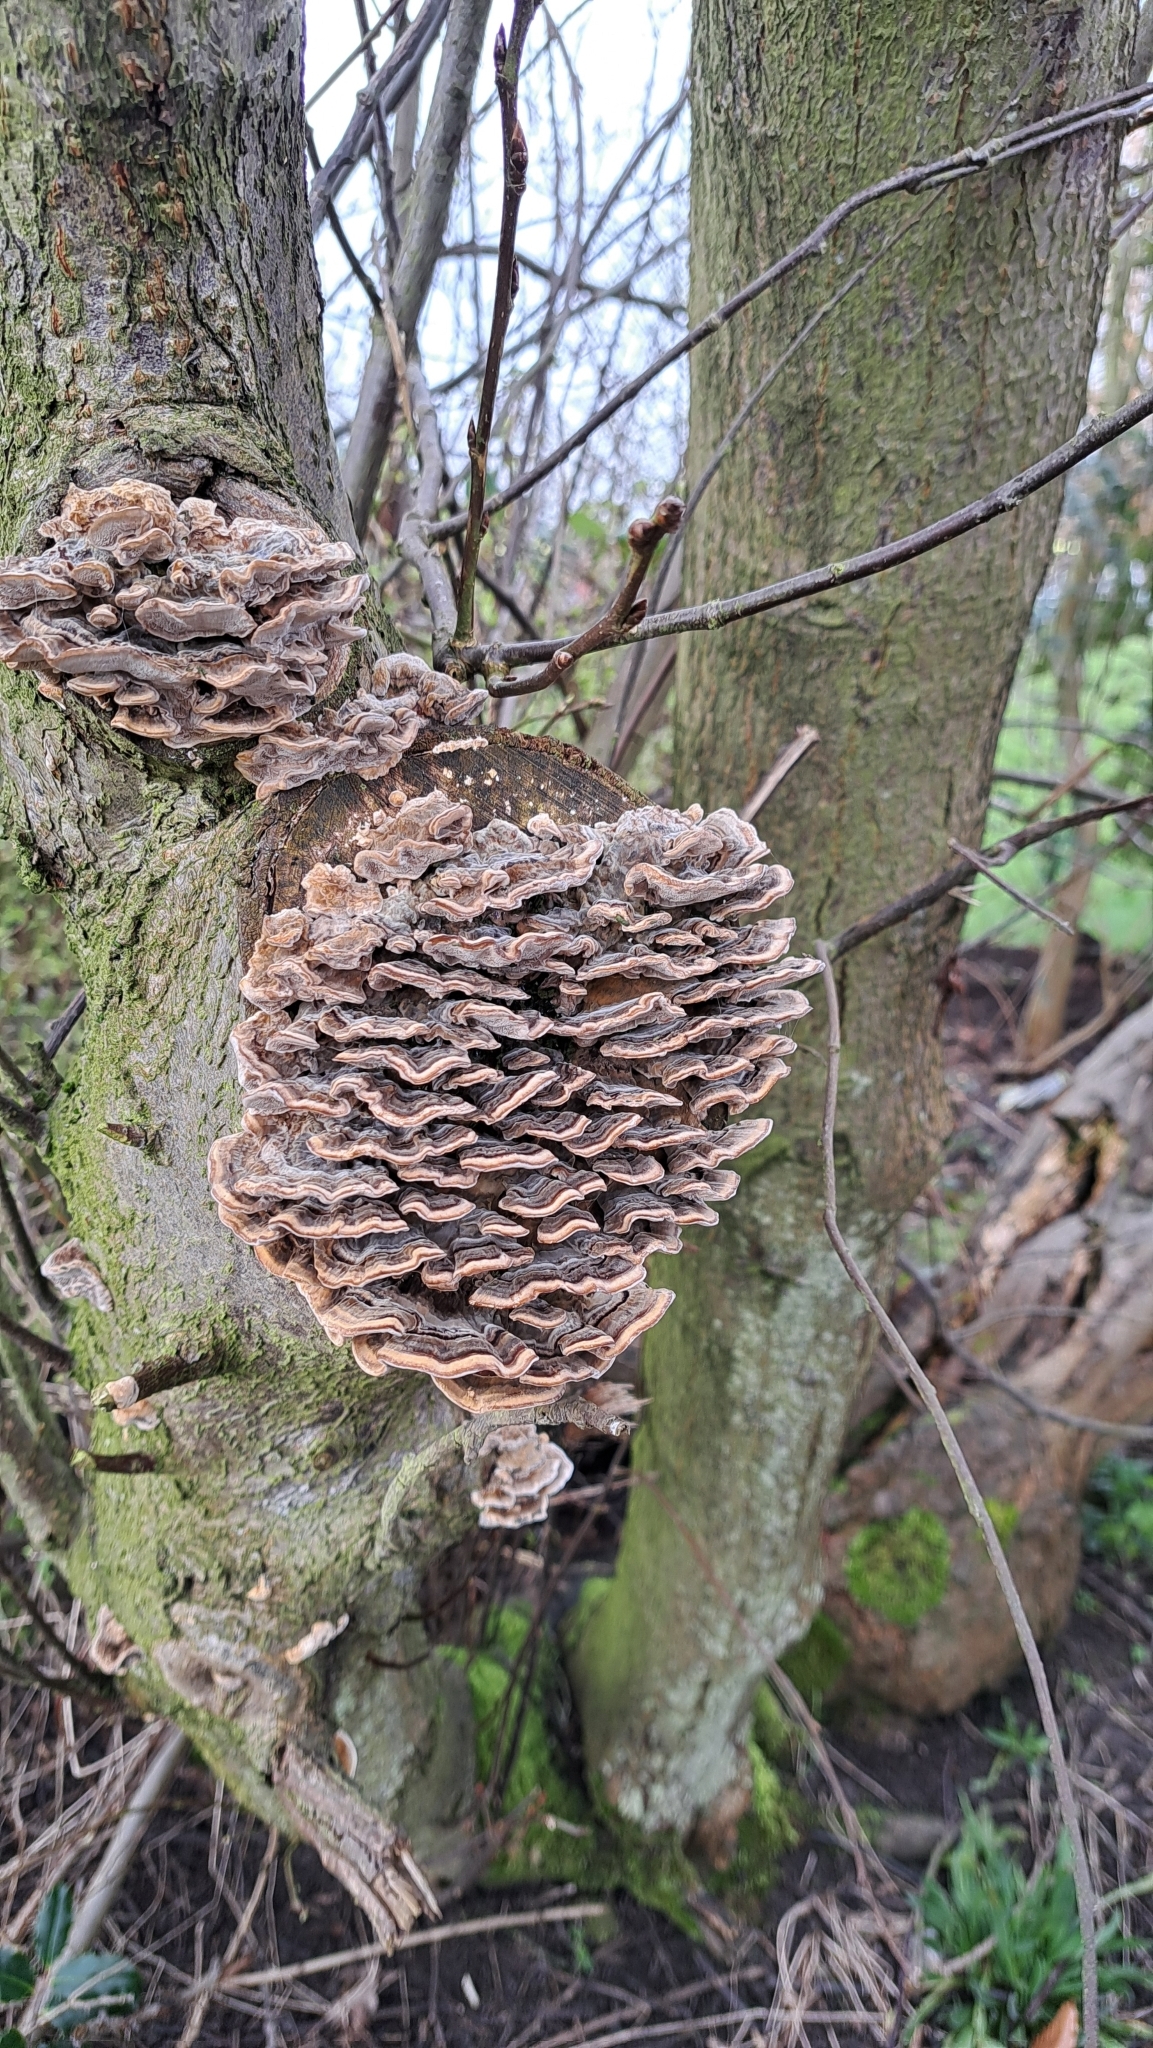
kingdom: Fungi
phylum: Basidiomycota
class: Agaricomycetes
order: Polyporales
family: Polyporaceae
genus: Trametes
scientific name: Trametes versicolor
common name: Turkeytail
